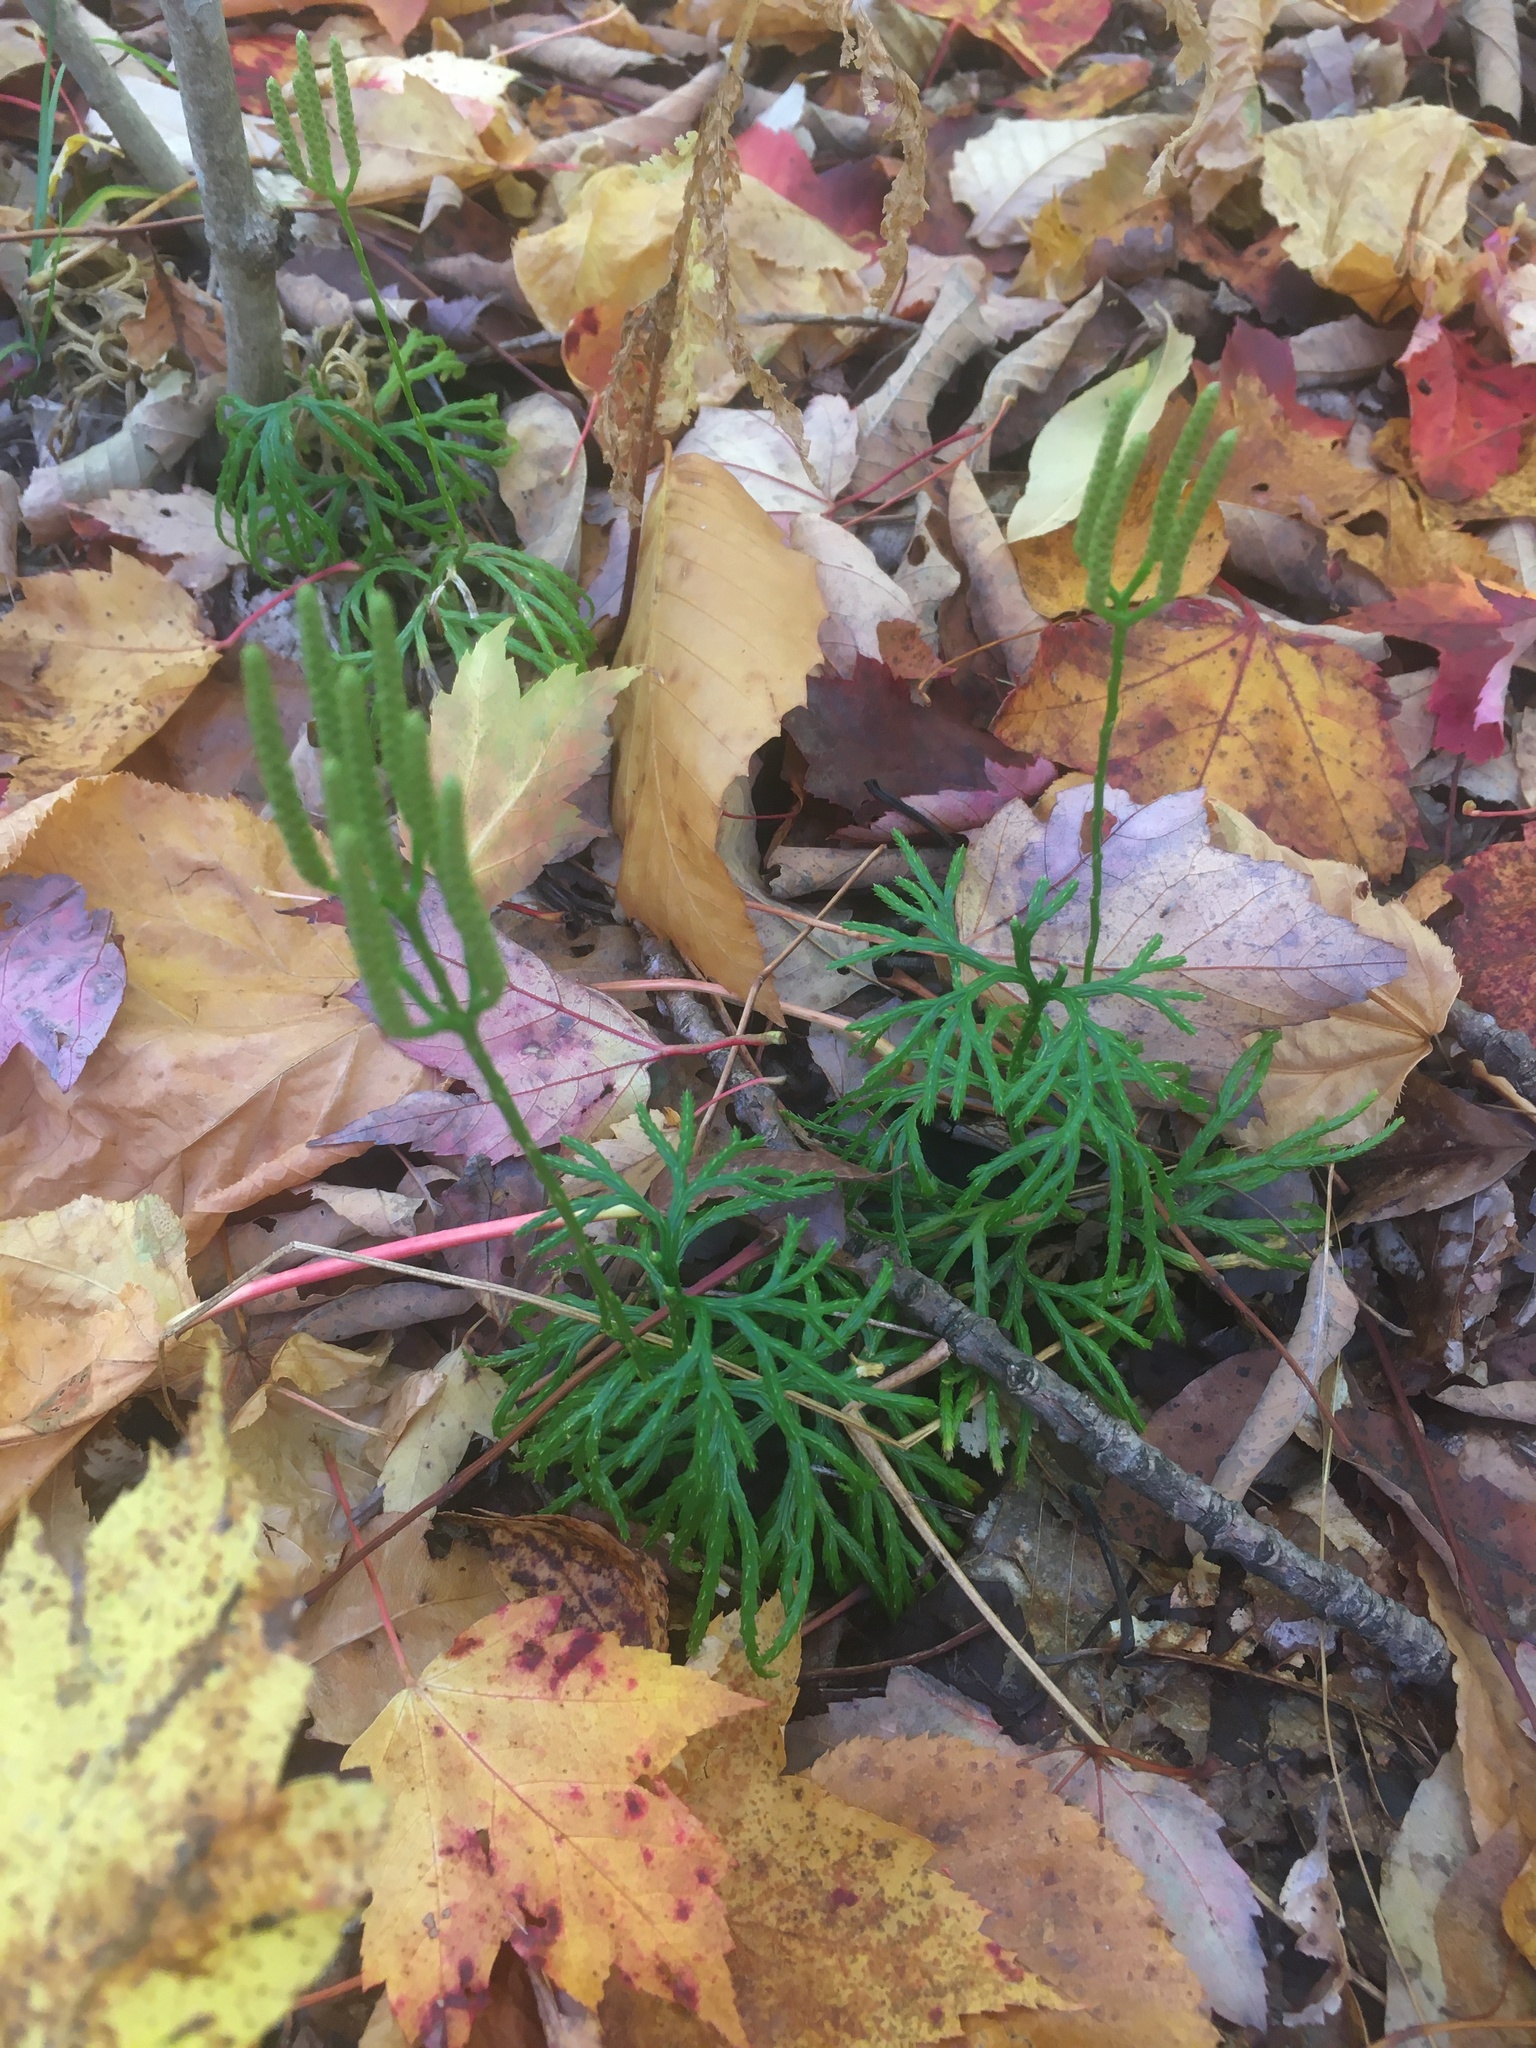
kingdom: Plantae
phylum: Tracheophyta
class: Lycopodiopsida
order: Lycopodiales
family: Lycopodiaceae
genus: Diphasiastrum
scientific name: Diphasiastrum digitatum
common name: Southern running-pine
